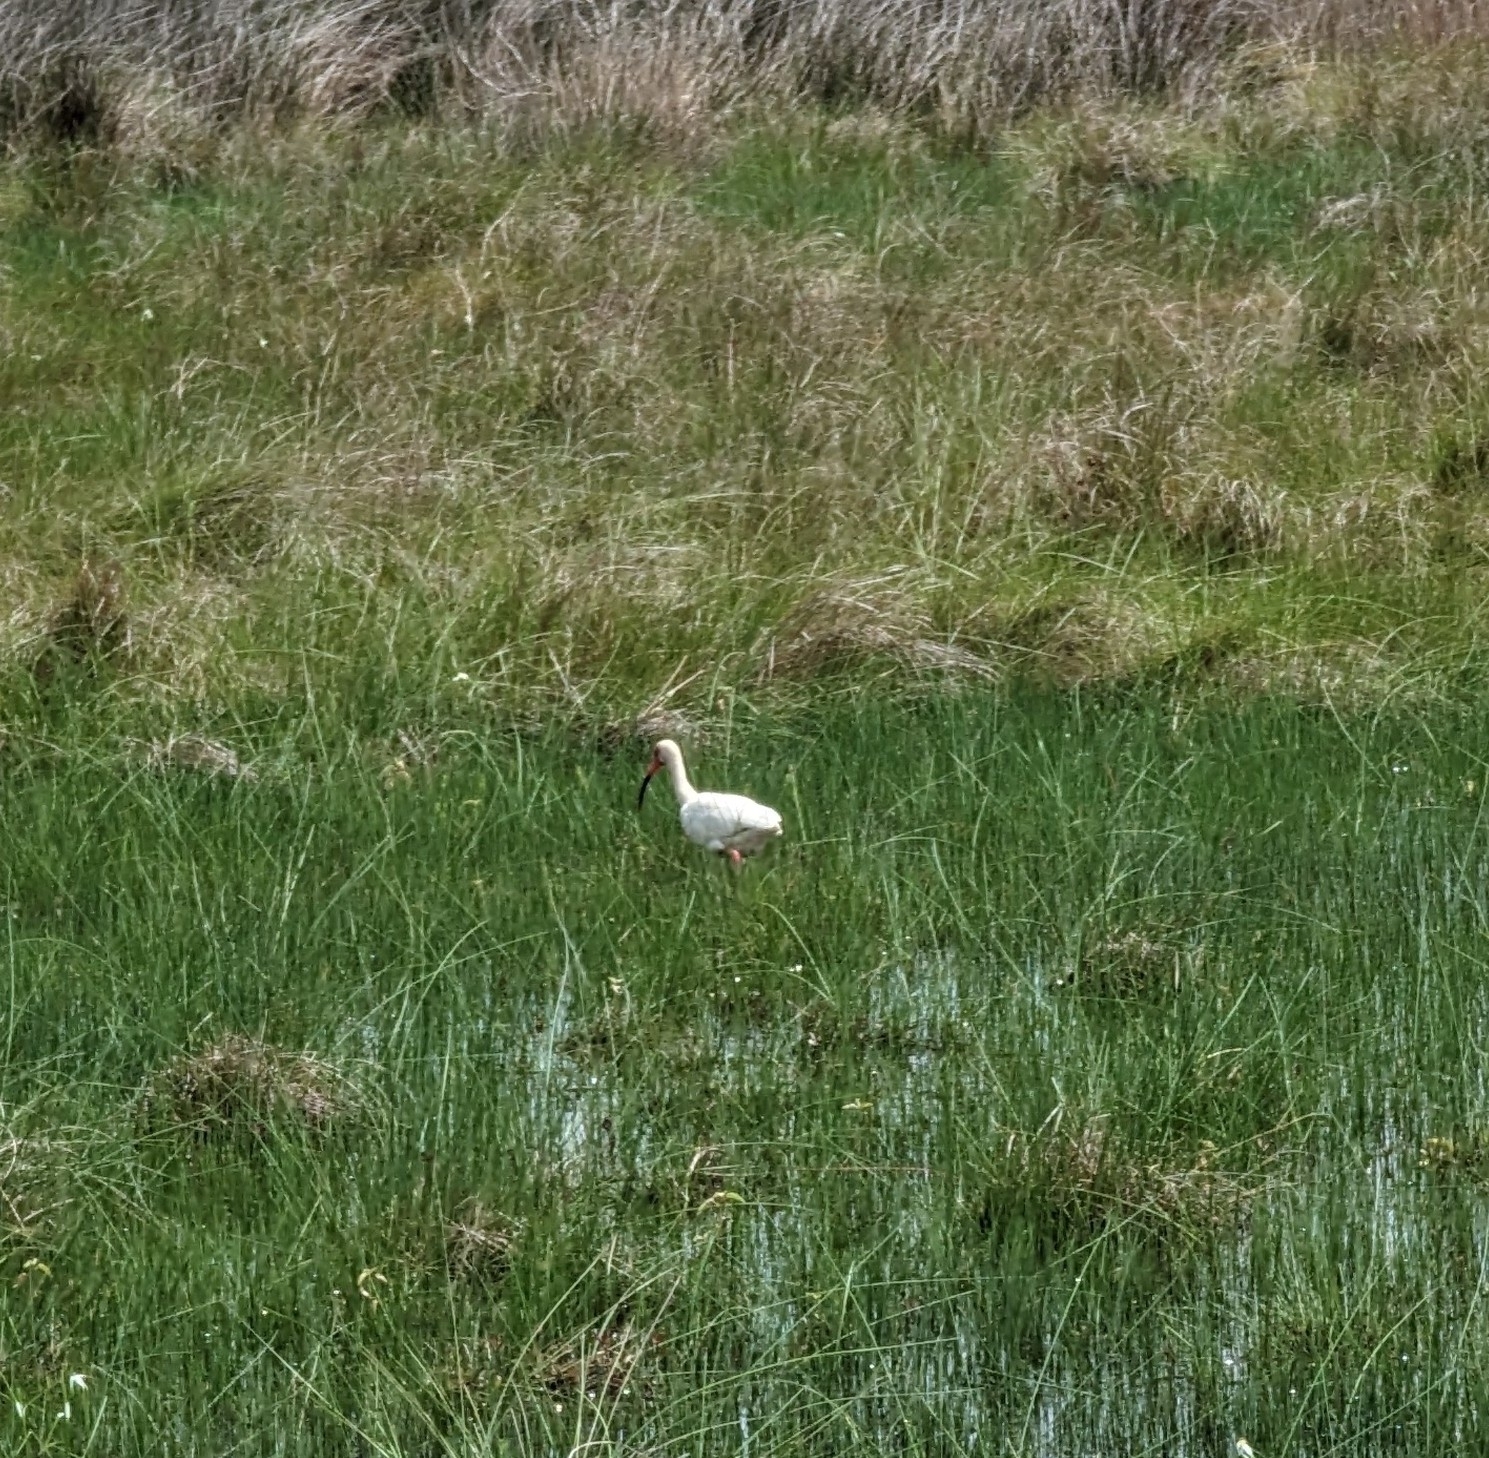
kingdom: Animalia
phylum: Chordata
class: Aves
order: Pelecaniformes
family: Threskiornithidae
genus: Eudocimus
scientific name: Eudocimus albus
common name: White ibis
